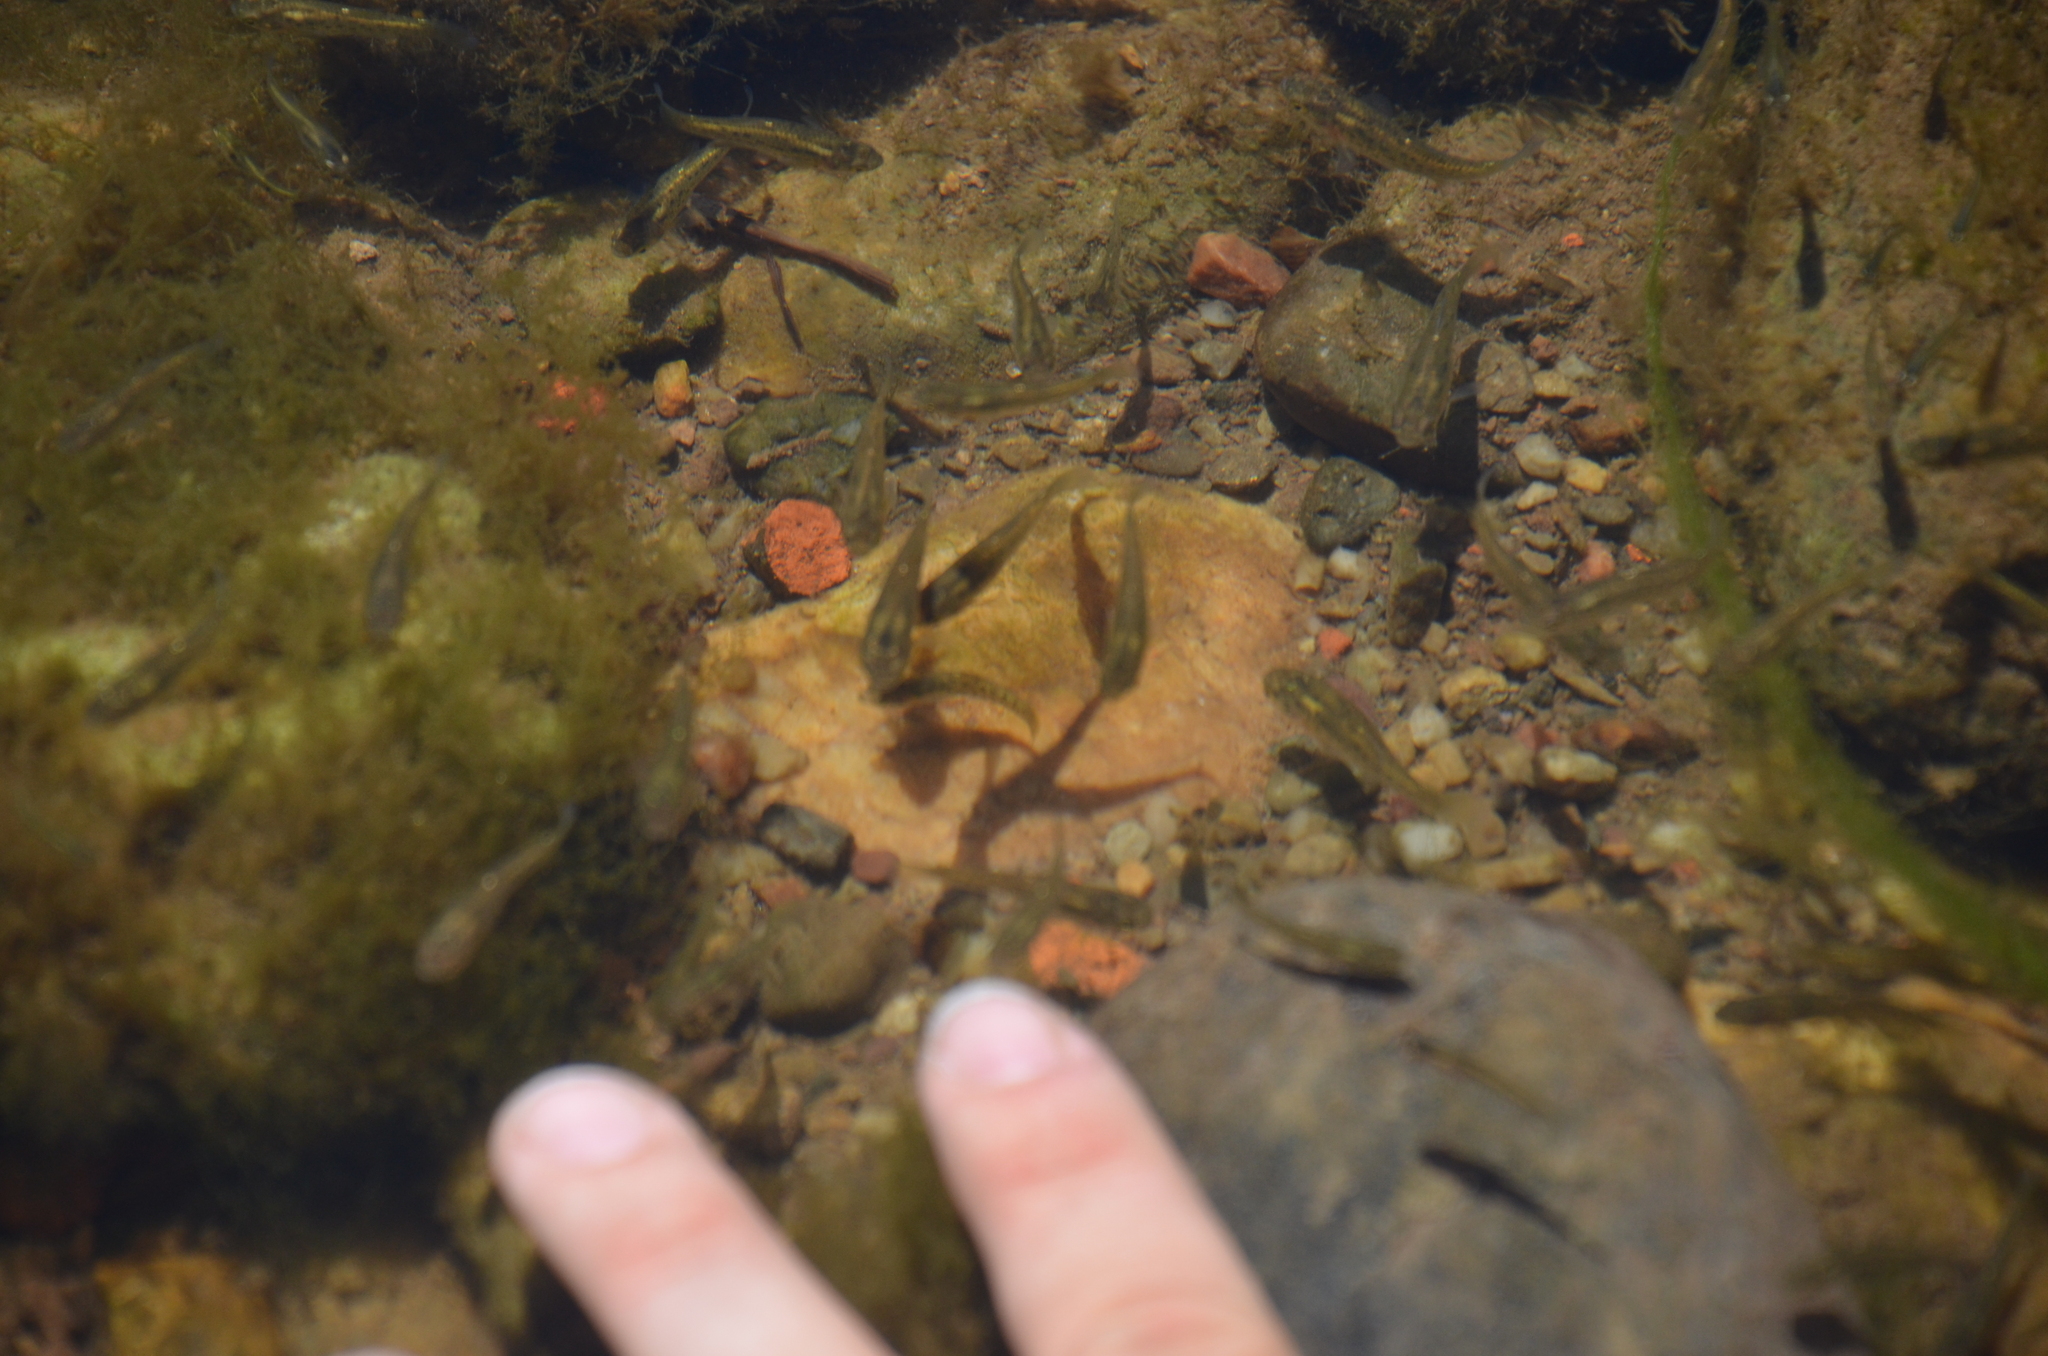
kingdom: Animalia
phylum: Chordata
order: Cyprinodontiformes
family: Anablepidae
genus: Jenynsia
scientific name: Jenynsia lineata
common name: Onesided livebearer
